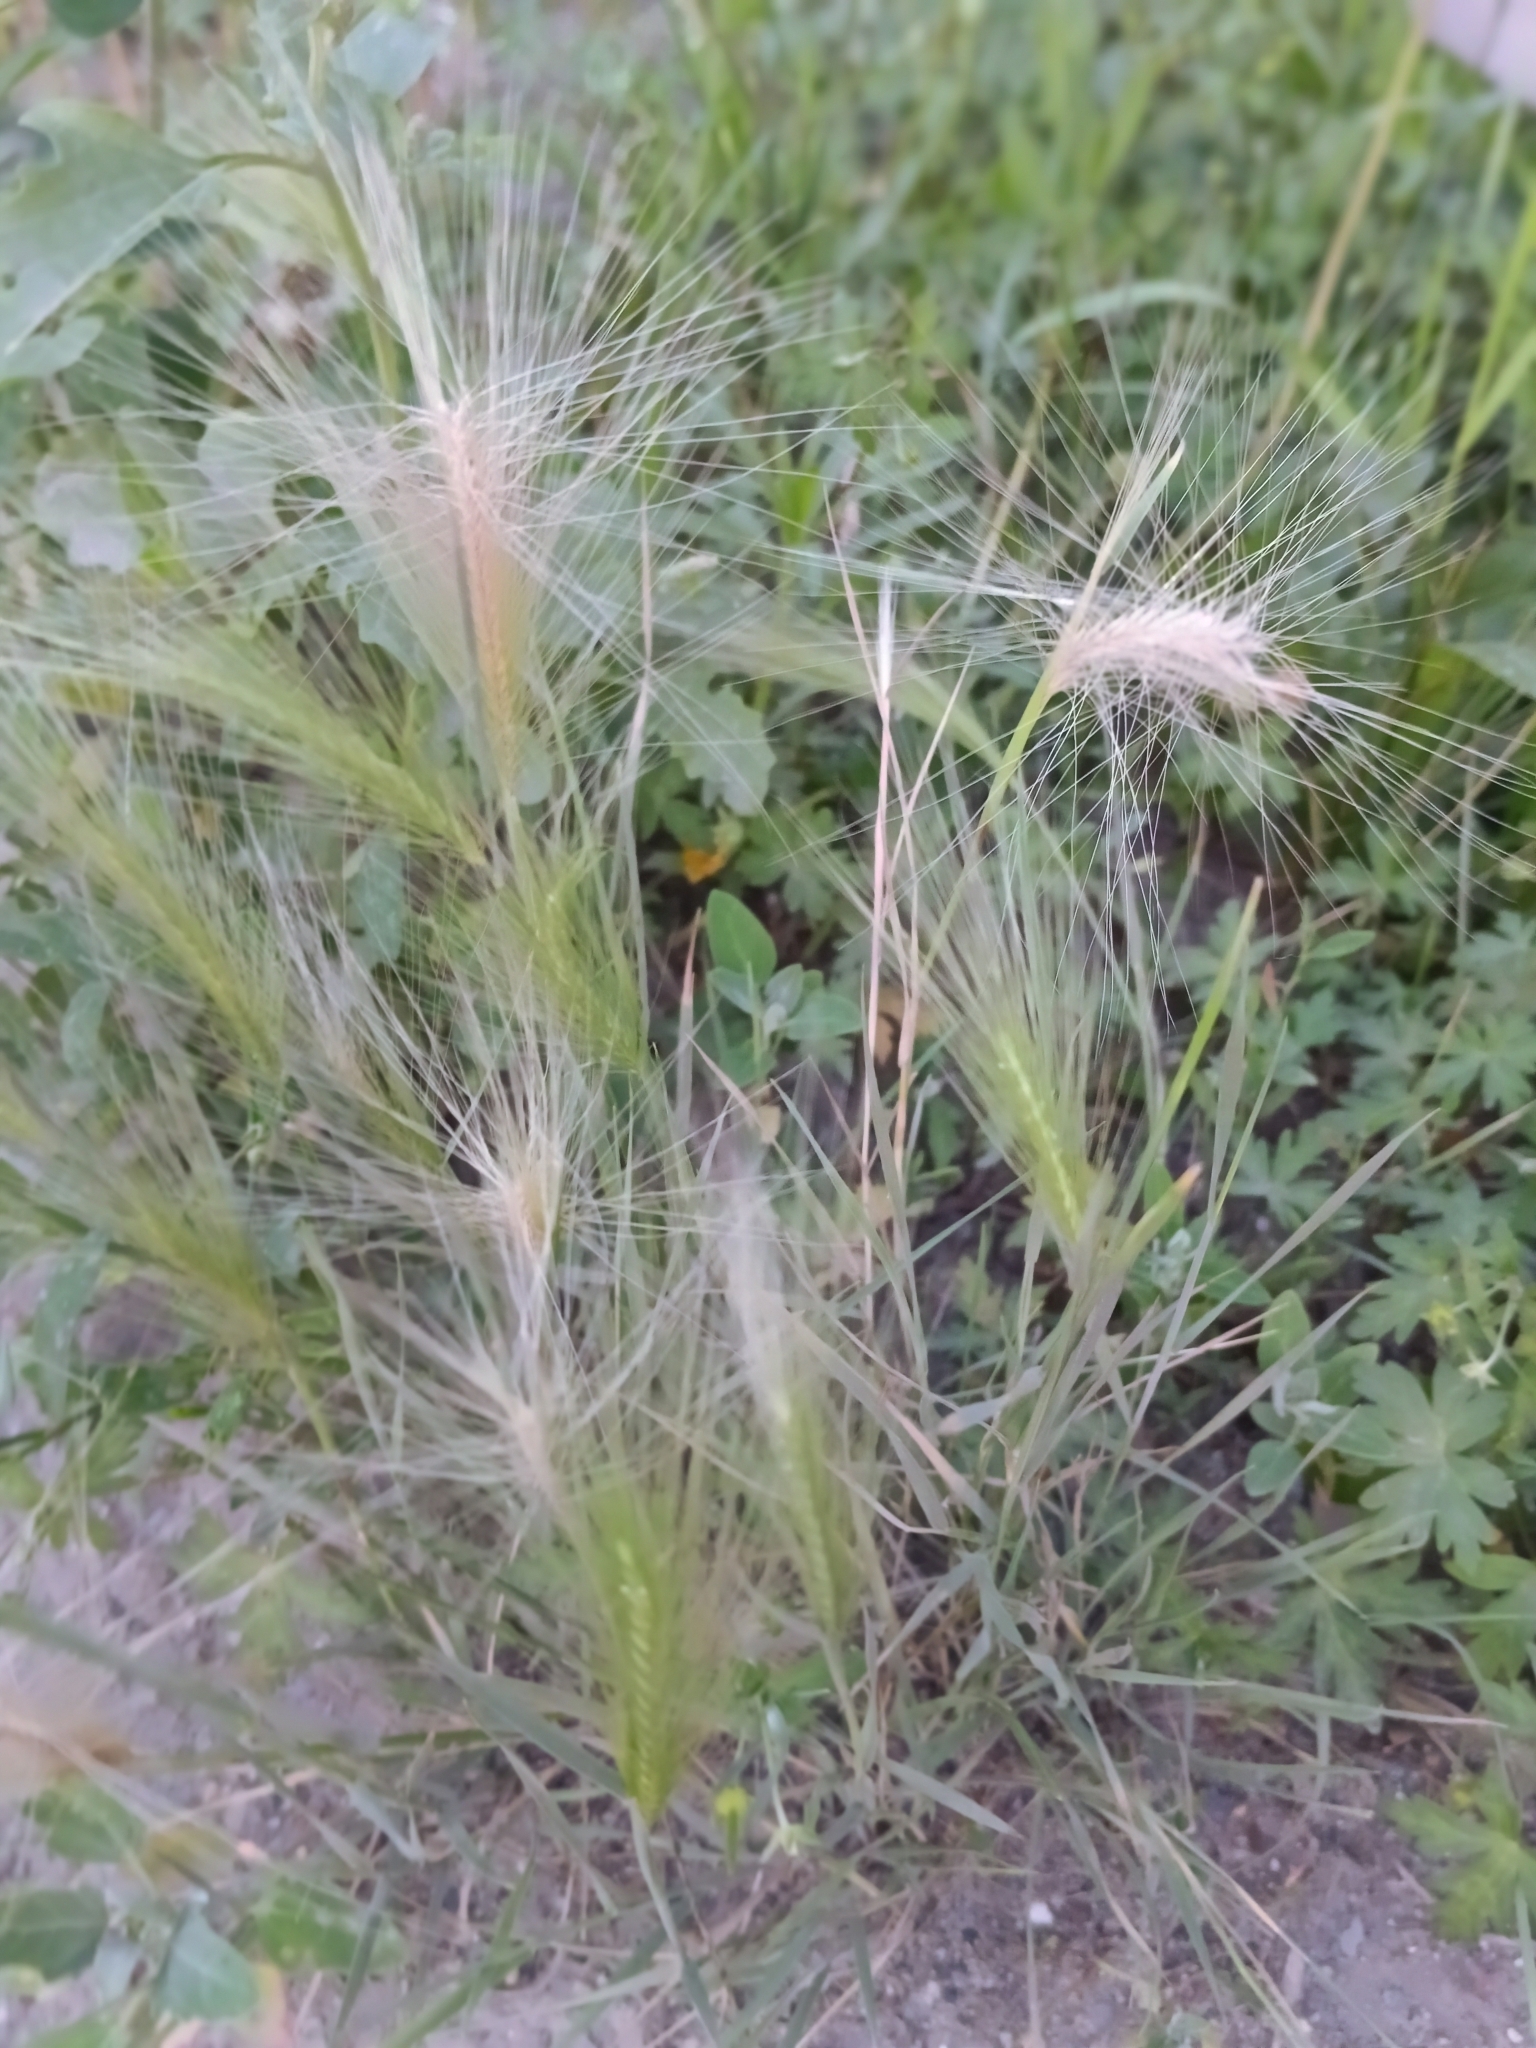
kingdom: Plantae
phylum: Tracheophyta
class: Liliopsida
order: Poales
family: Poaceae
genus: Hordeum
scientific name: Hordeum jubatum
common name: Foxtail barley
